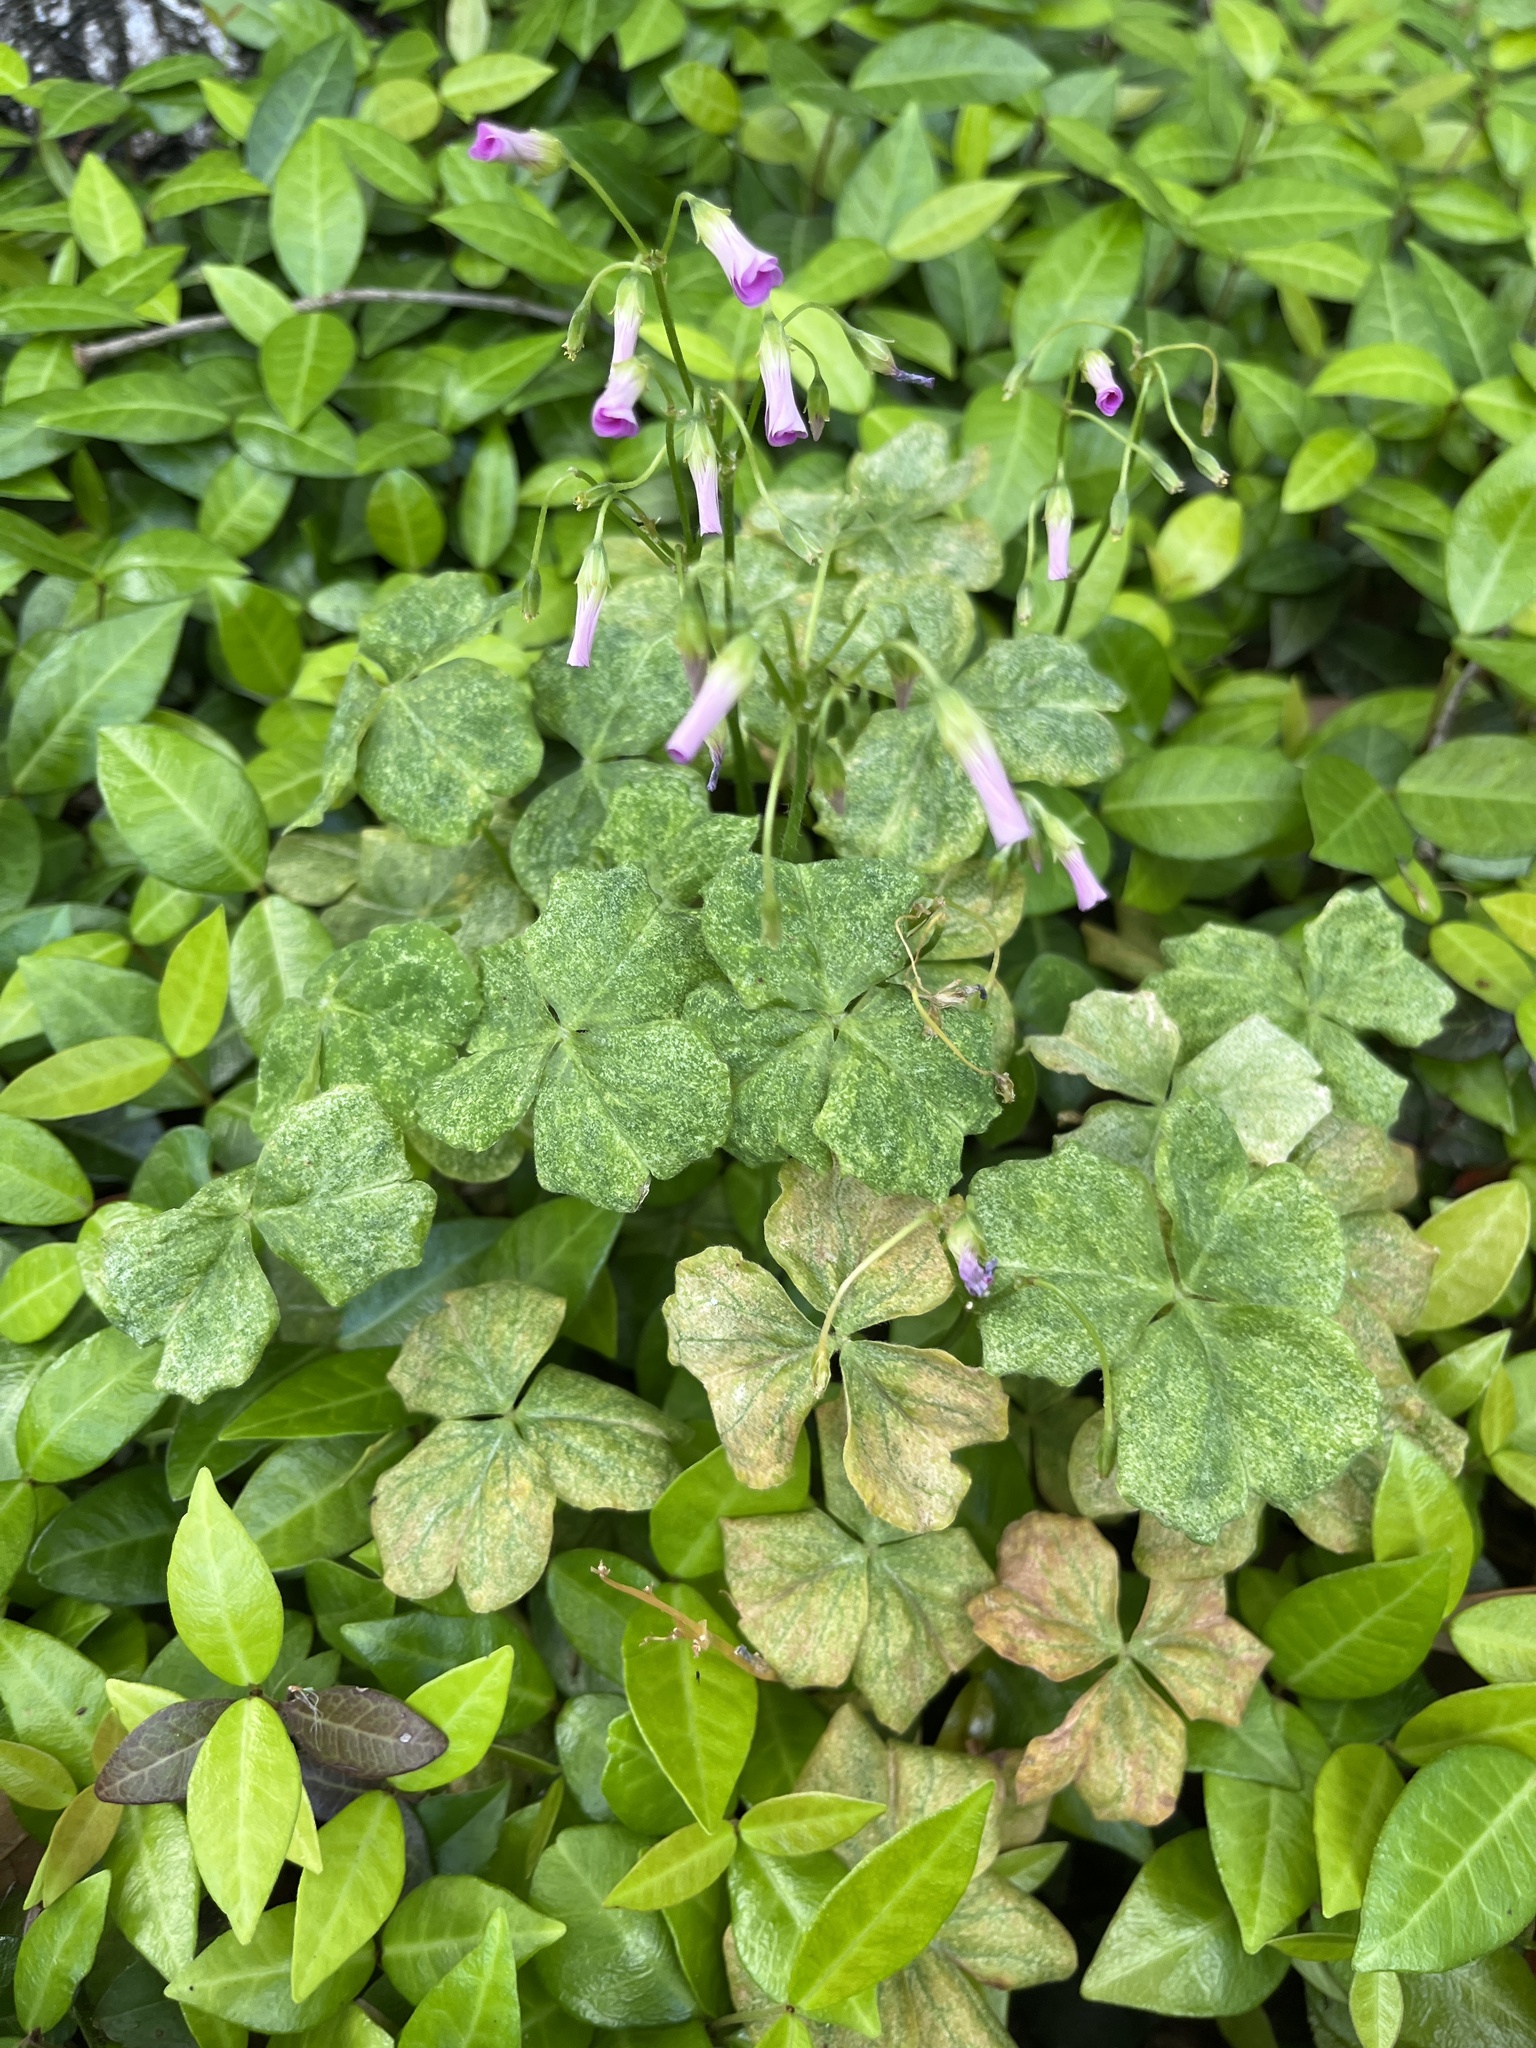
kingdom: Plantae
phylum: Tracheophyta
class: Magnoliopsida
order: Oxalidales
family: Oxalidaceae
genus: Oxalis
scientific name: Oxalis debilis
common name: Large-flowered pink-sorrel
